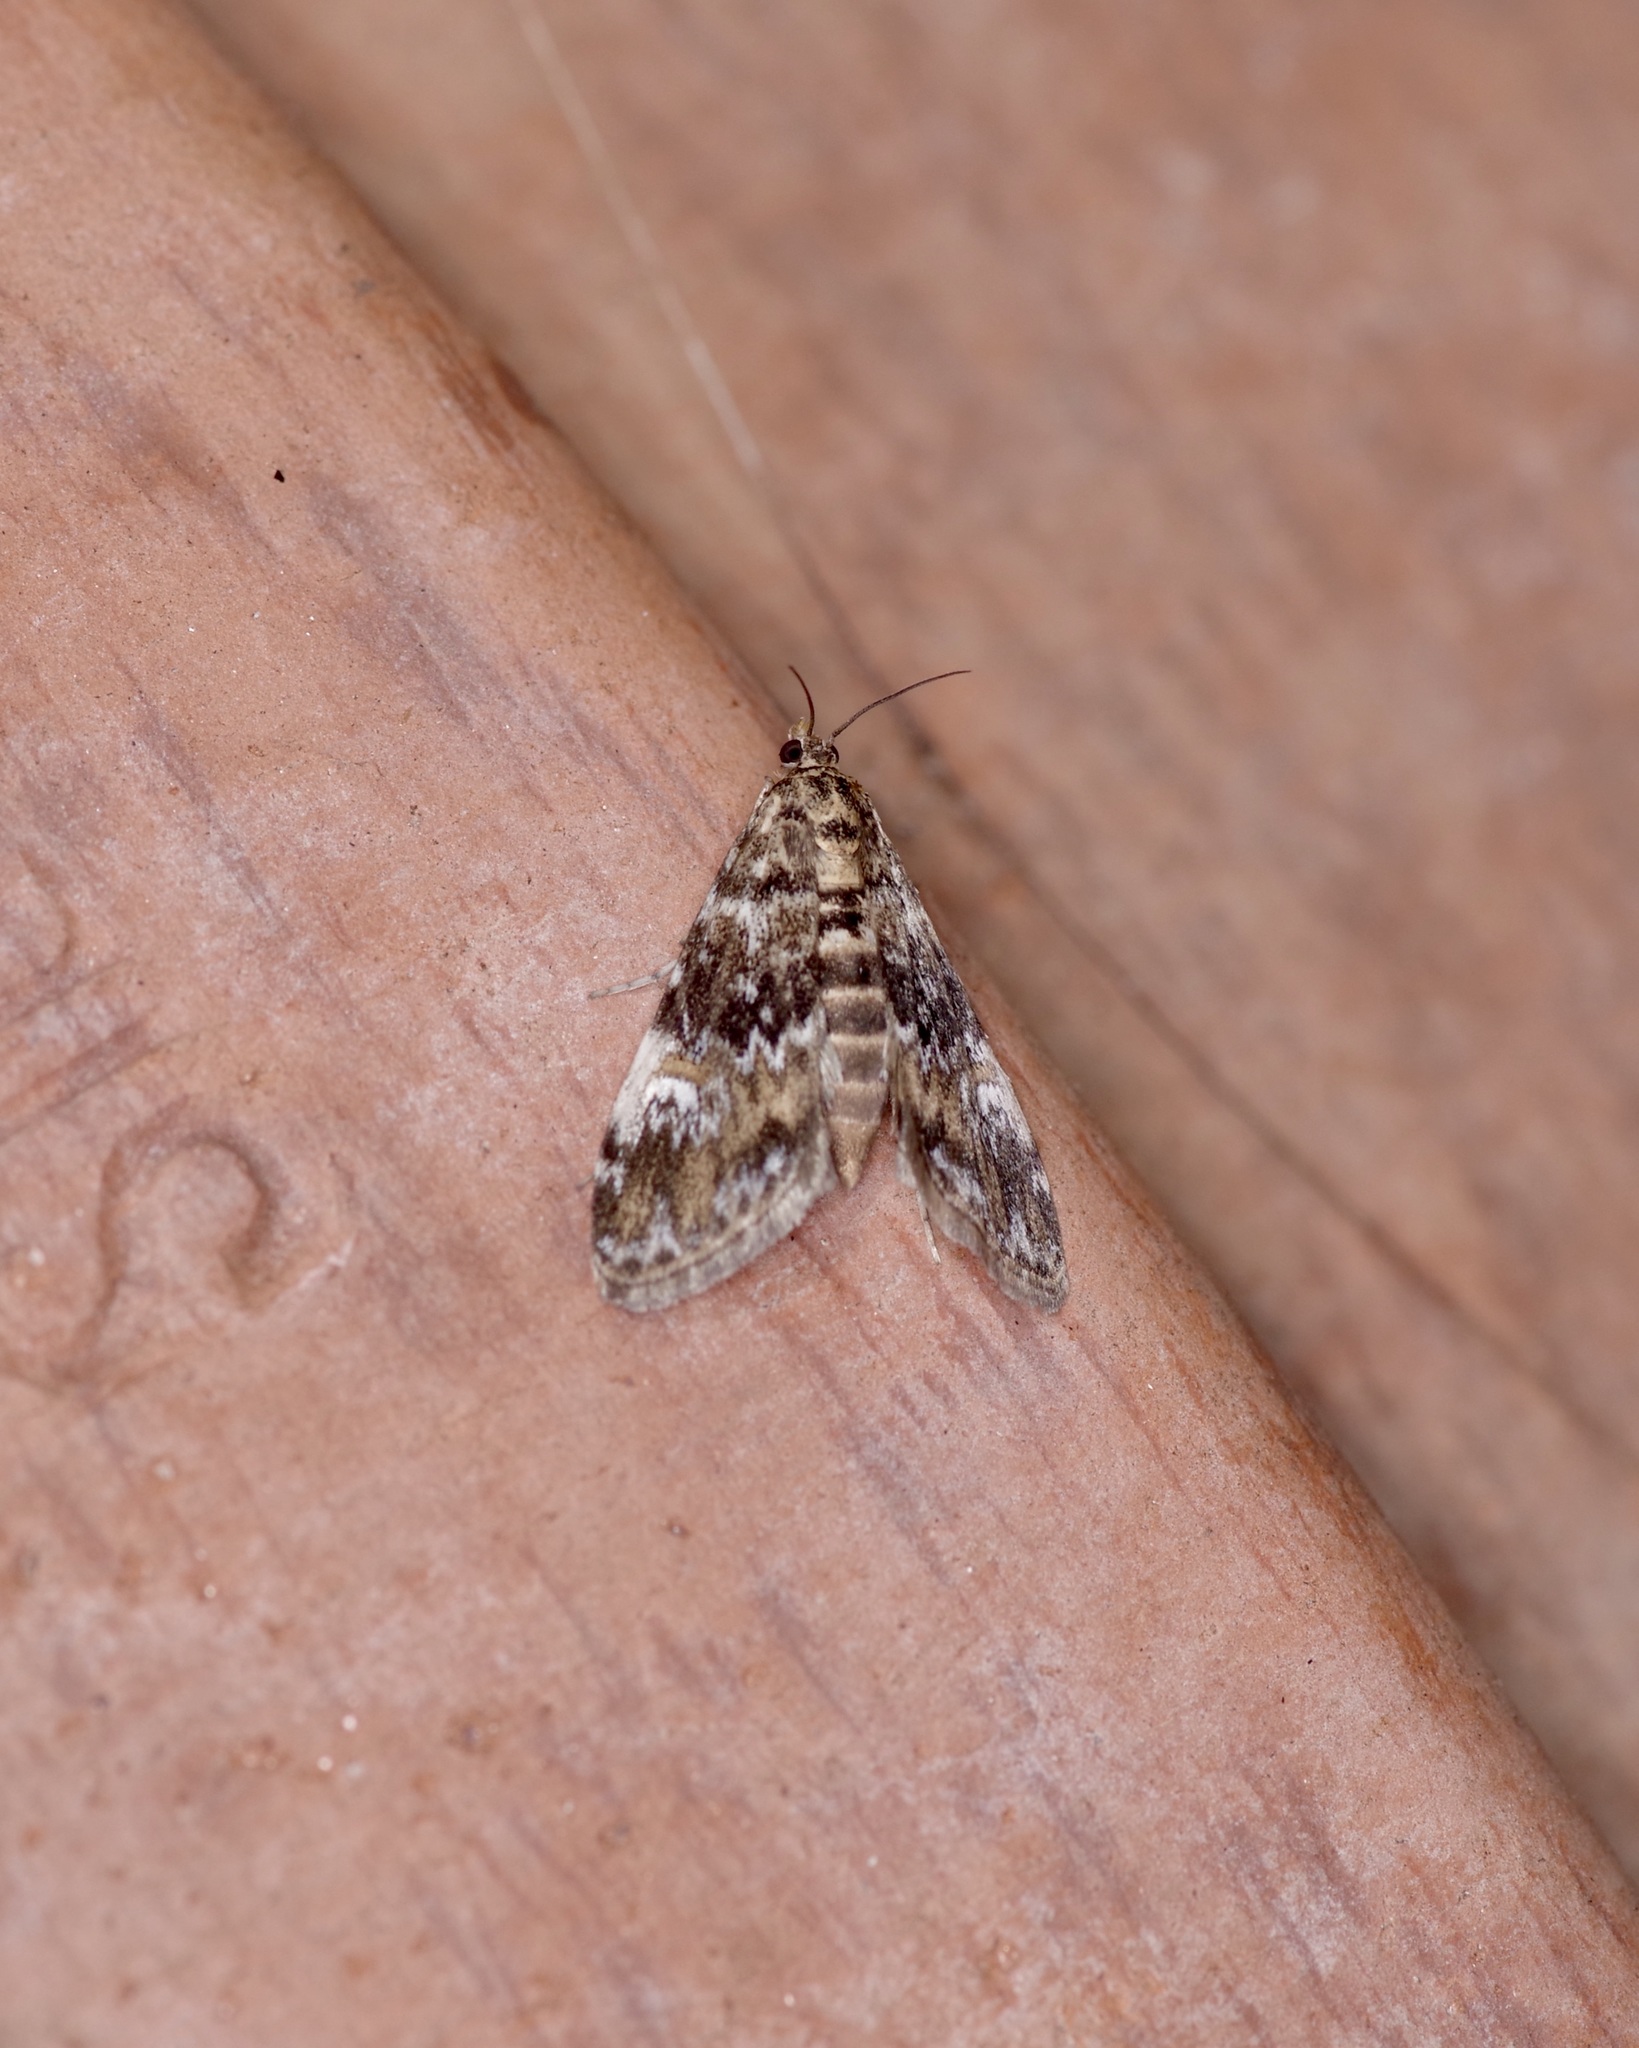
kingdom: Animalia
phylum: Arthropoda
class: Insecta
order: Lepidoptera
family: Crambidae
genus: Elophila
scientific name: Elophila obliteralis
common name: Waterlily leafcutter moth
